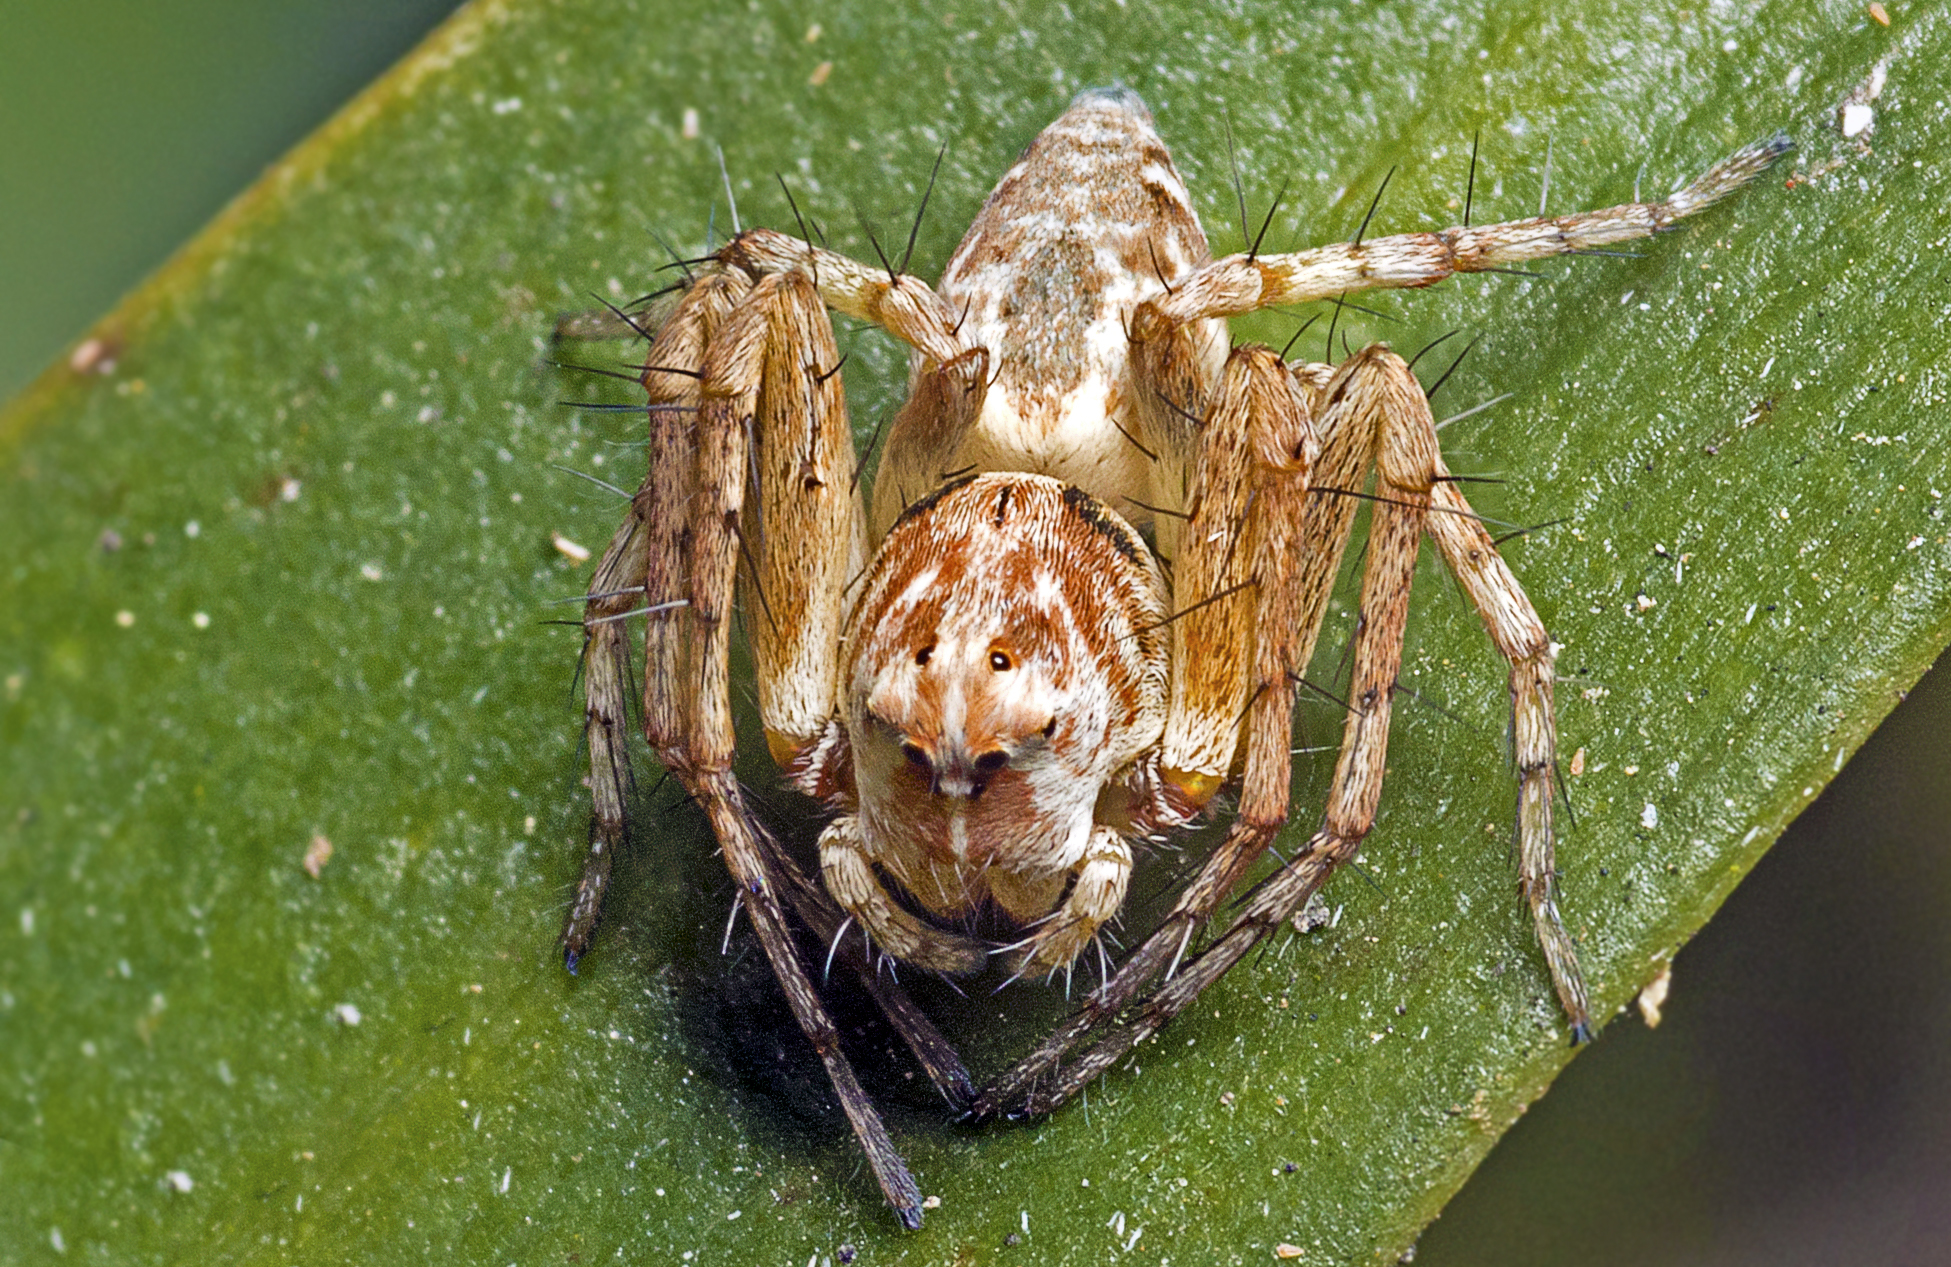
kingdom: Animalia
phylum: Arthropoda
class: Arachnida
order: Araneae
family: Oxyopidae
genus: Oxyopes
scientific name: Oxyopes variabilis
